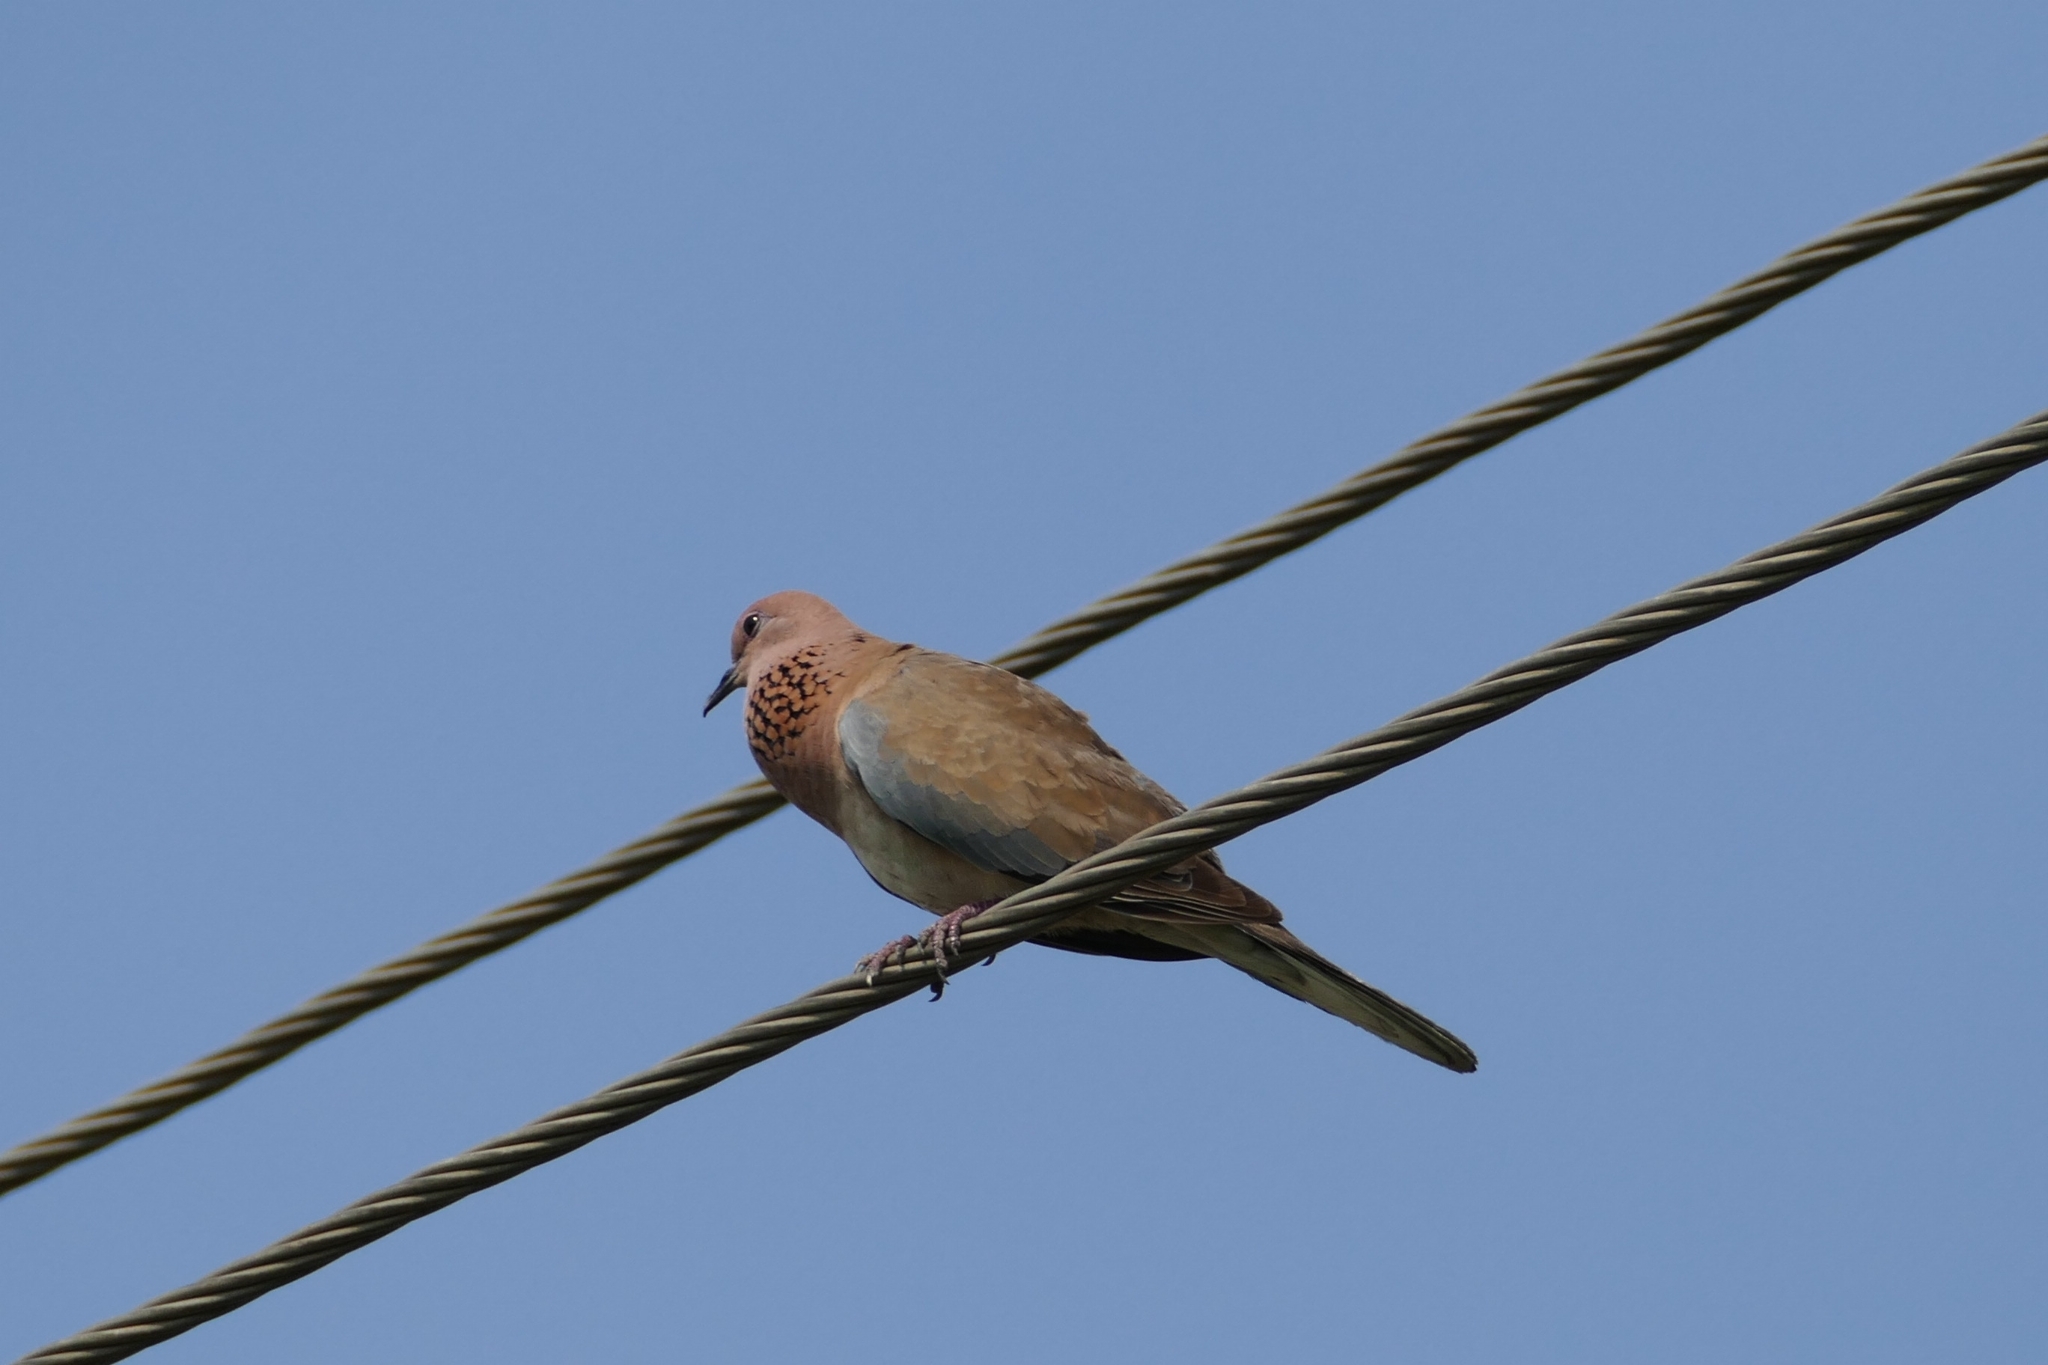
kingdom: Animalia
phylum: Chordata
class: Aves
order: Columbiformes
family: Columbidae
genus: Spilopelia
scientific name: Spilopelia senegalensis
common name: Laughing dove
